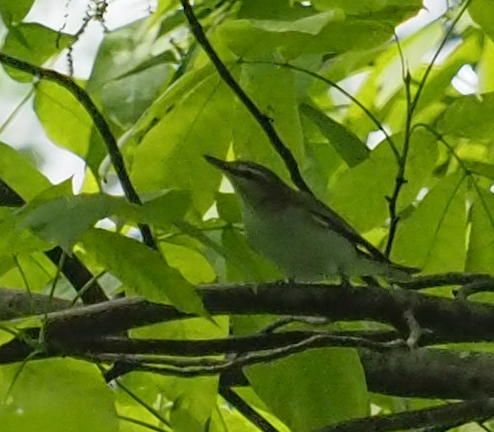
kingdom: Animalia
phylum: Chordata
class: Aves
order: Passeriformes
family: Vireonidae
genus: Vireo
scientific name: Vireo olivaceus
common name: Red-eyed vireo
